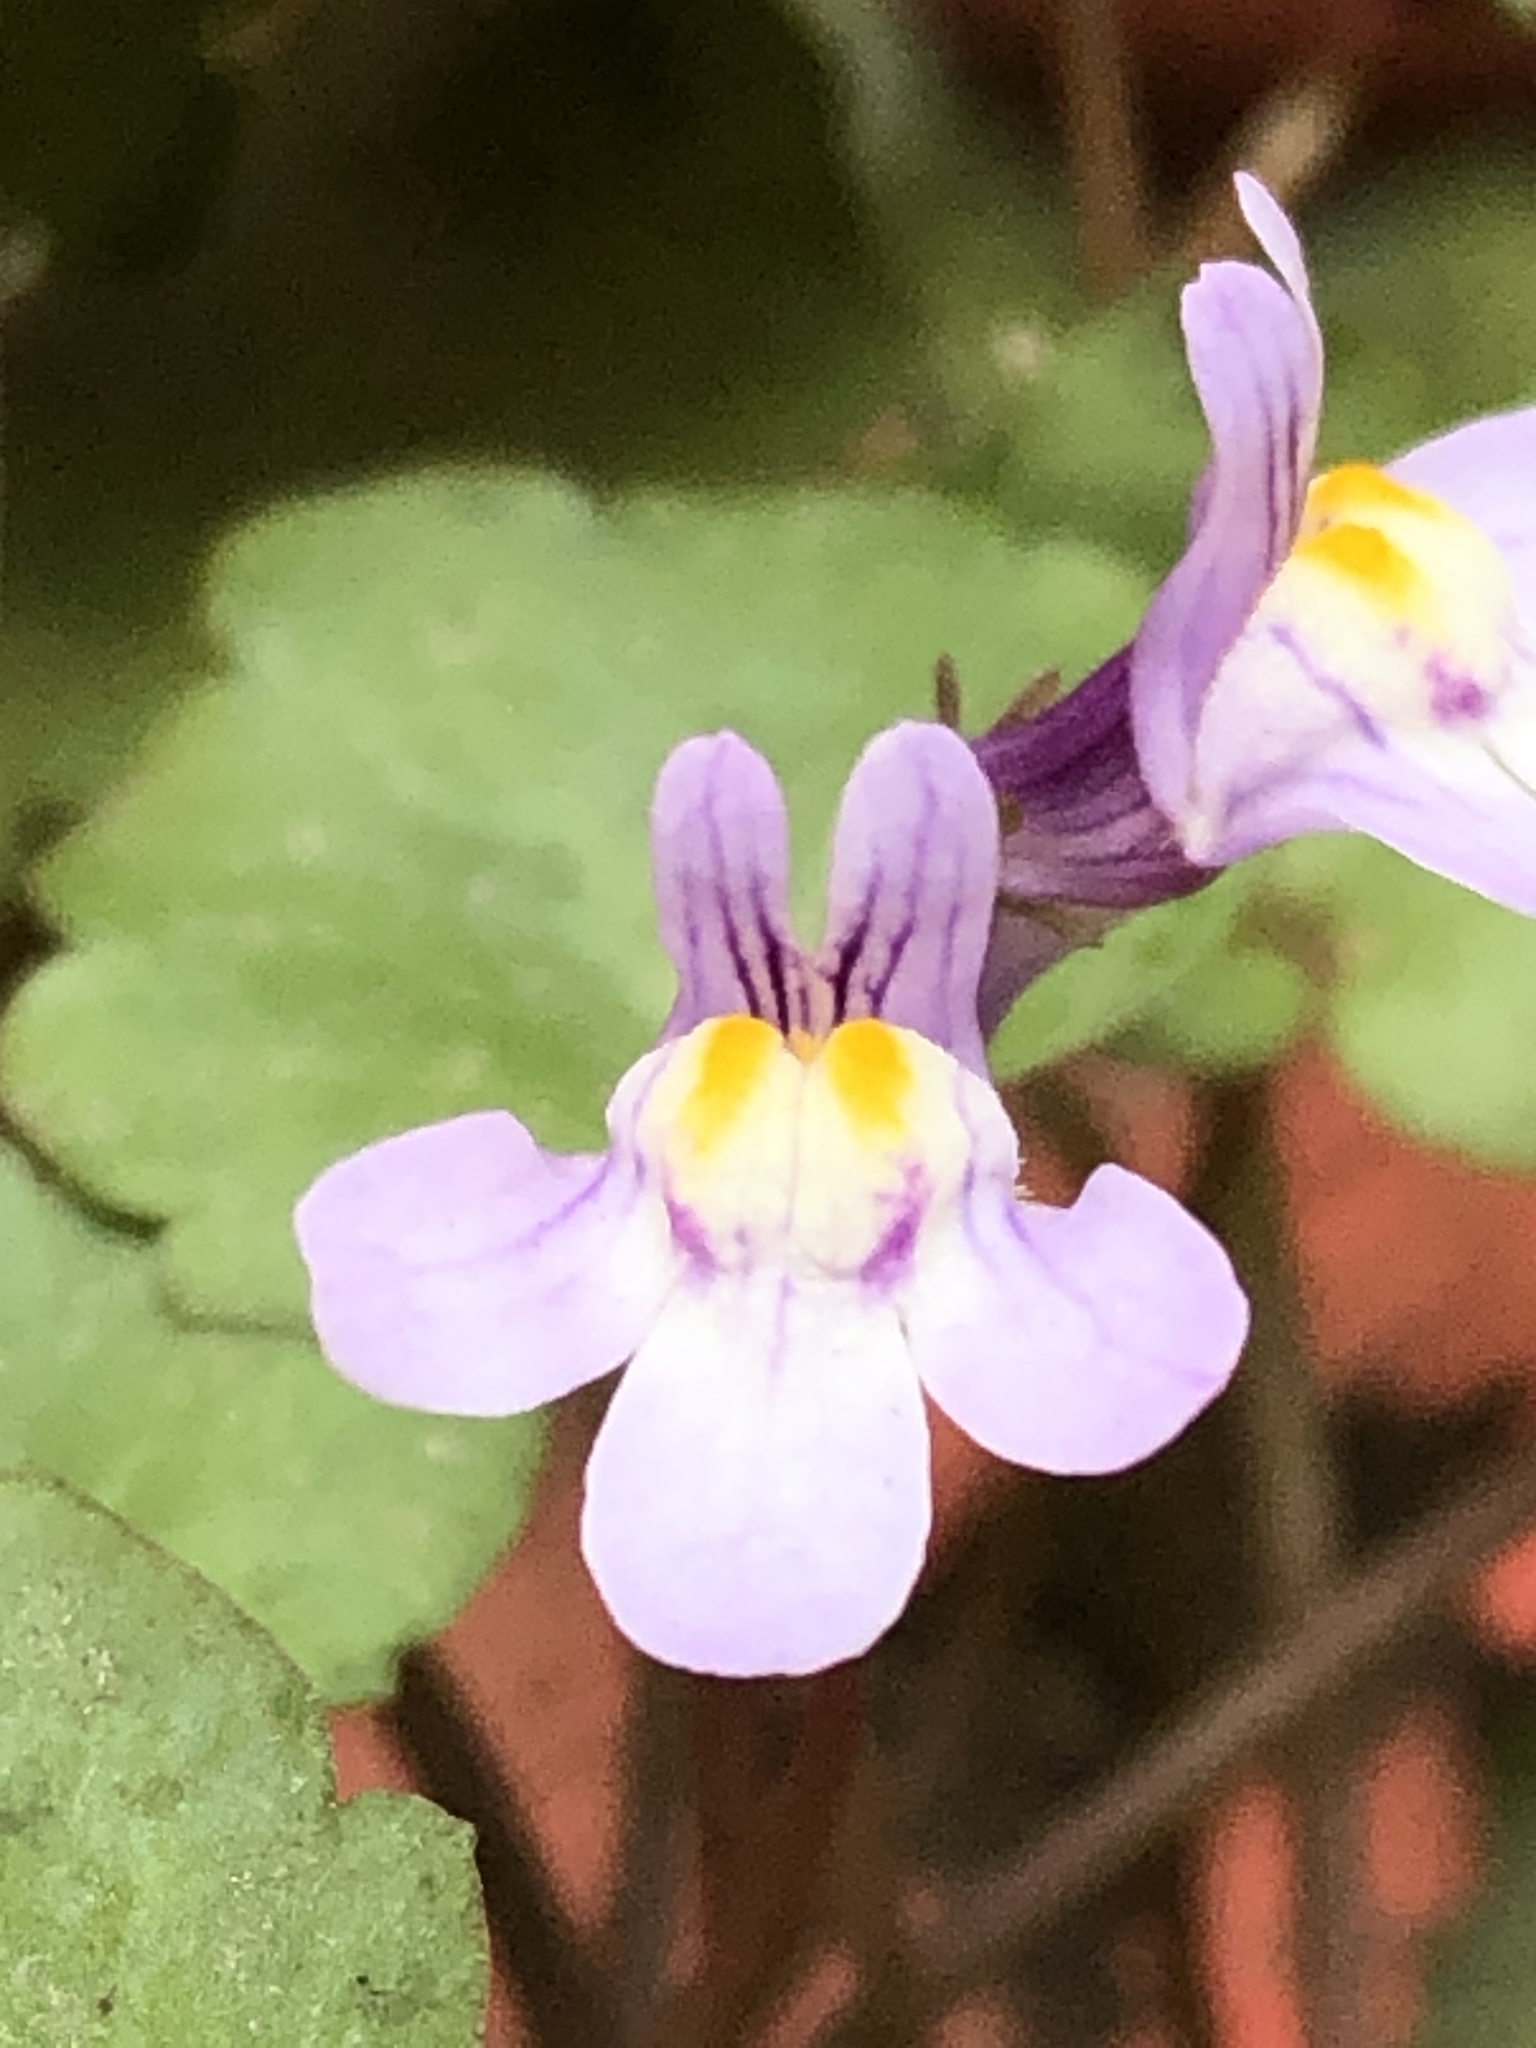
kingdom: Plantae
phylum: Tracheophyta
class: Magnoliopsida
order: Lamiales
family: Plantaginaceae
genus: Cymbalaria
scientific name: Cymbalaria muralis
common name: Ivy-leaved toadflax
